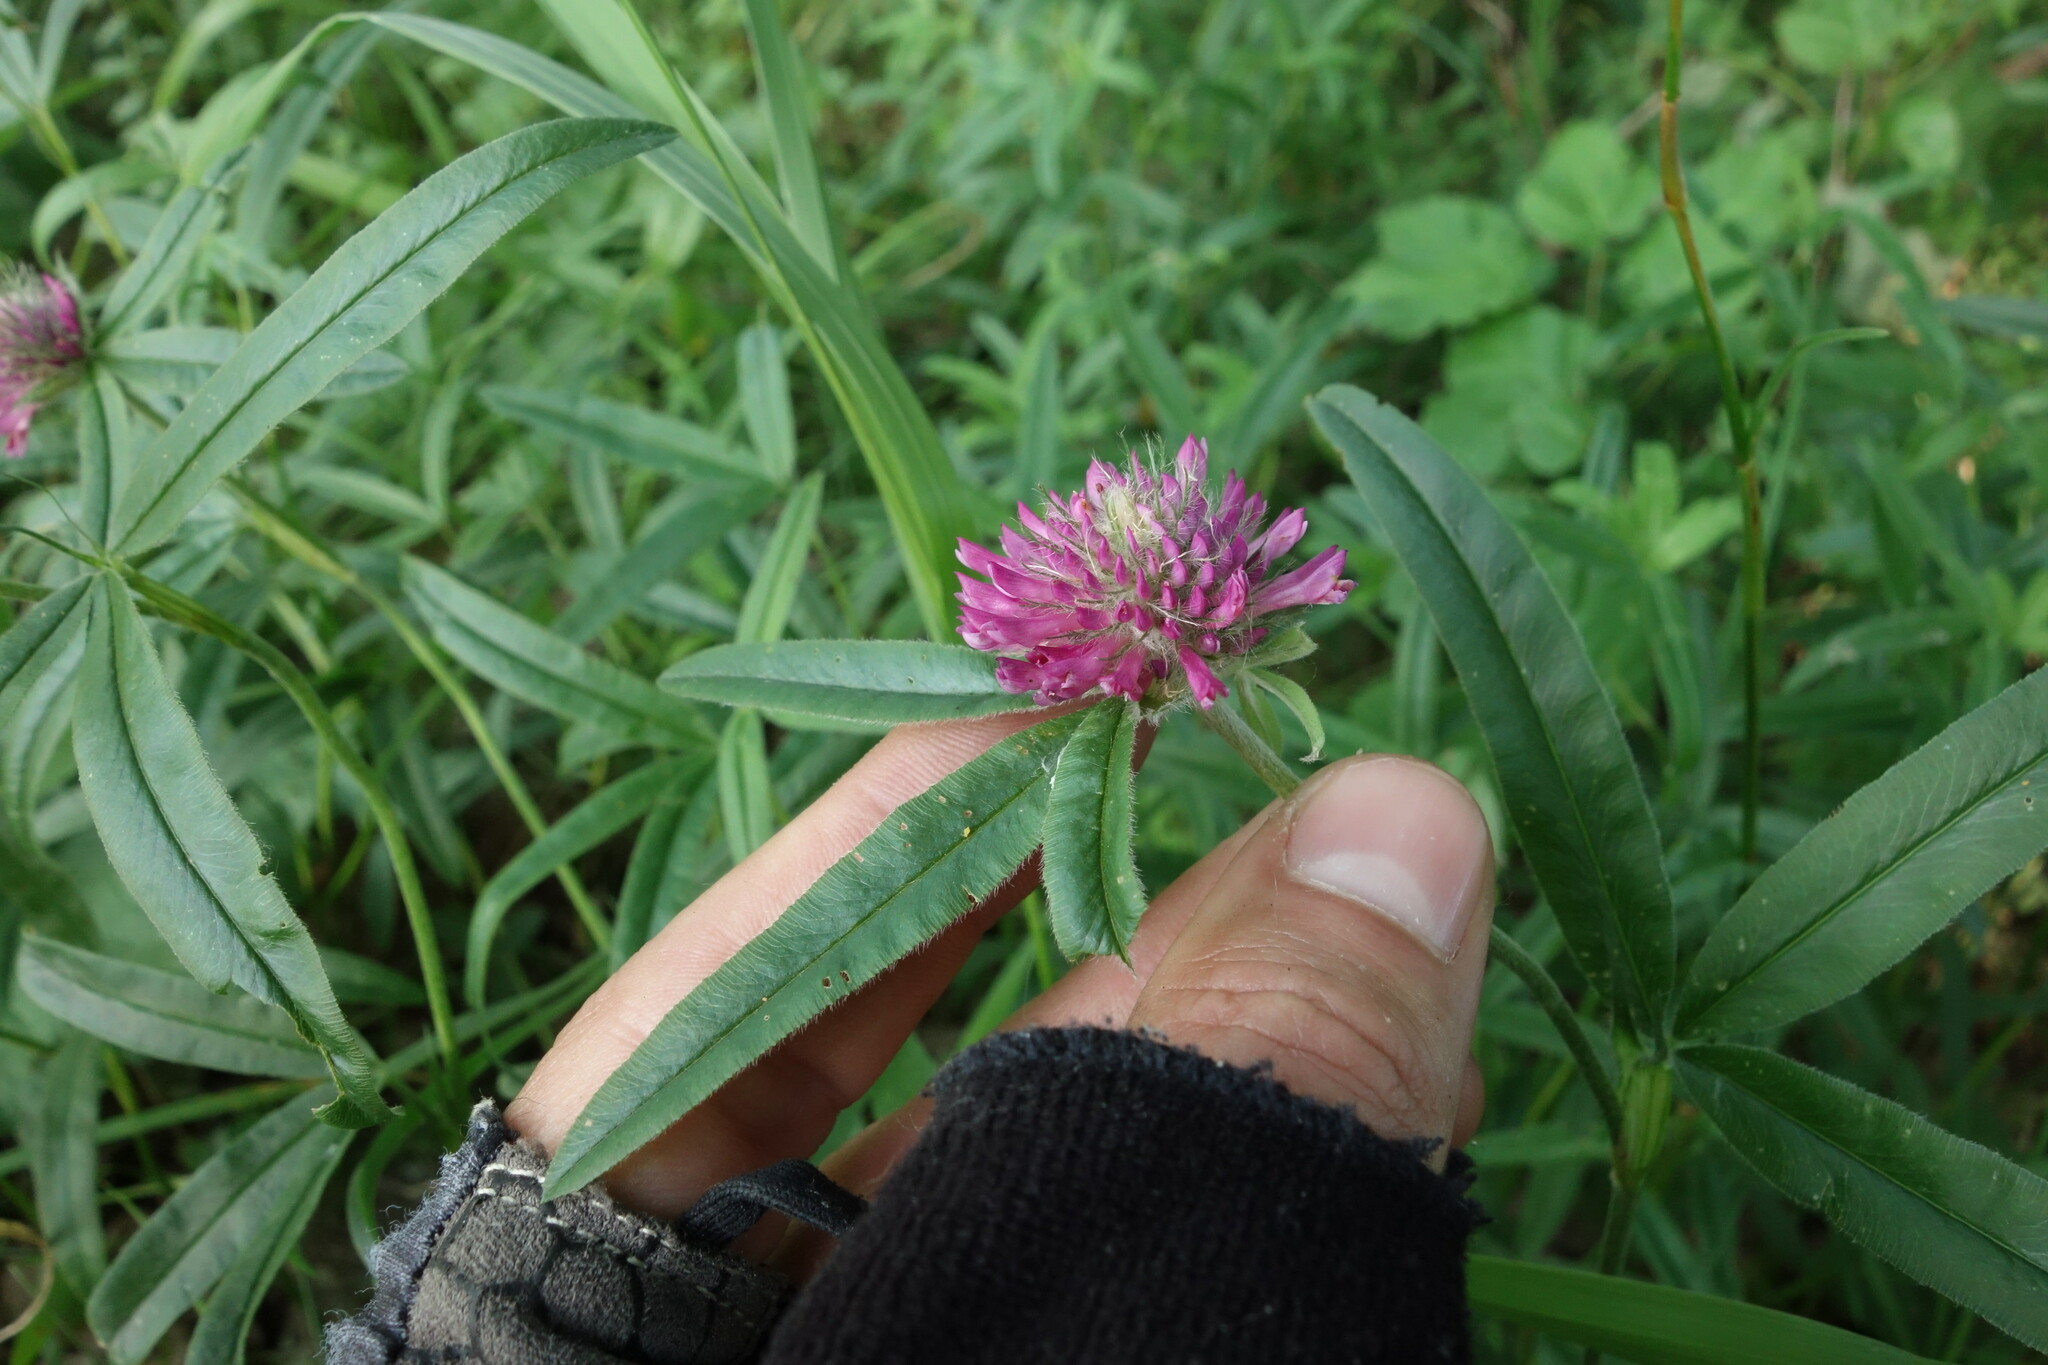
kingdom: Plantae
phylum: Tracheophyta
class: Magnoliopsida
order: Fabales
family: Fabaceae
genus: Trifolium
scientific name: Trifolium alpestre
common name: Owl-head clover
